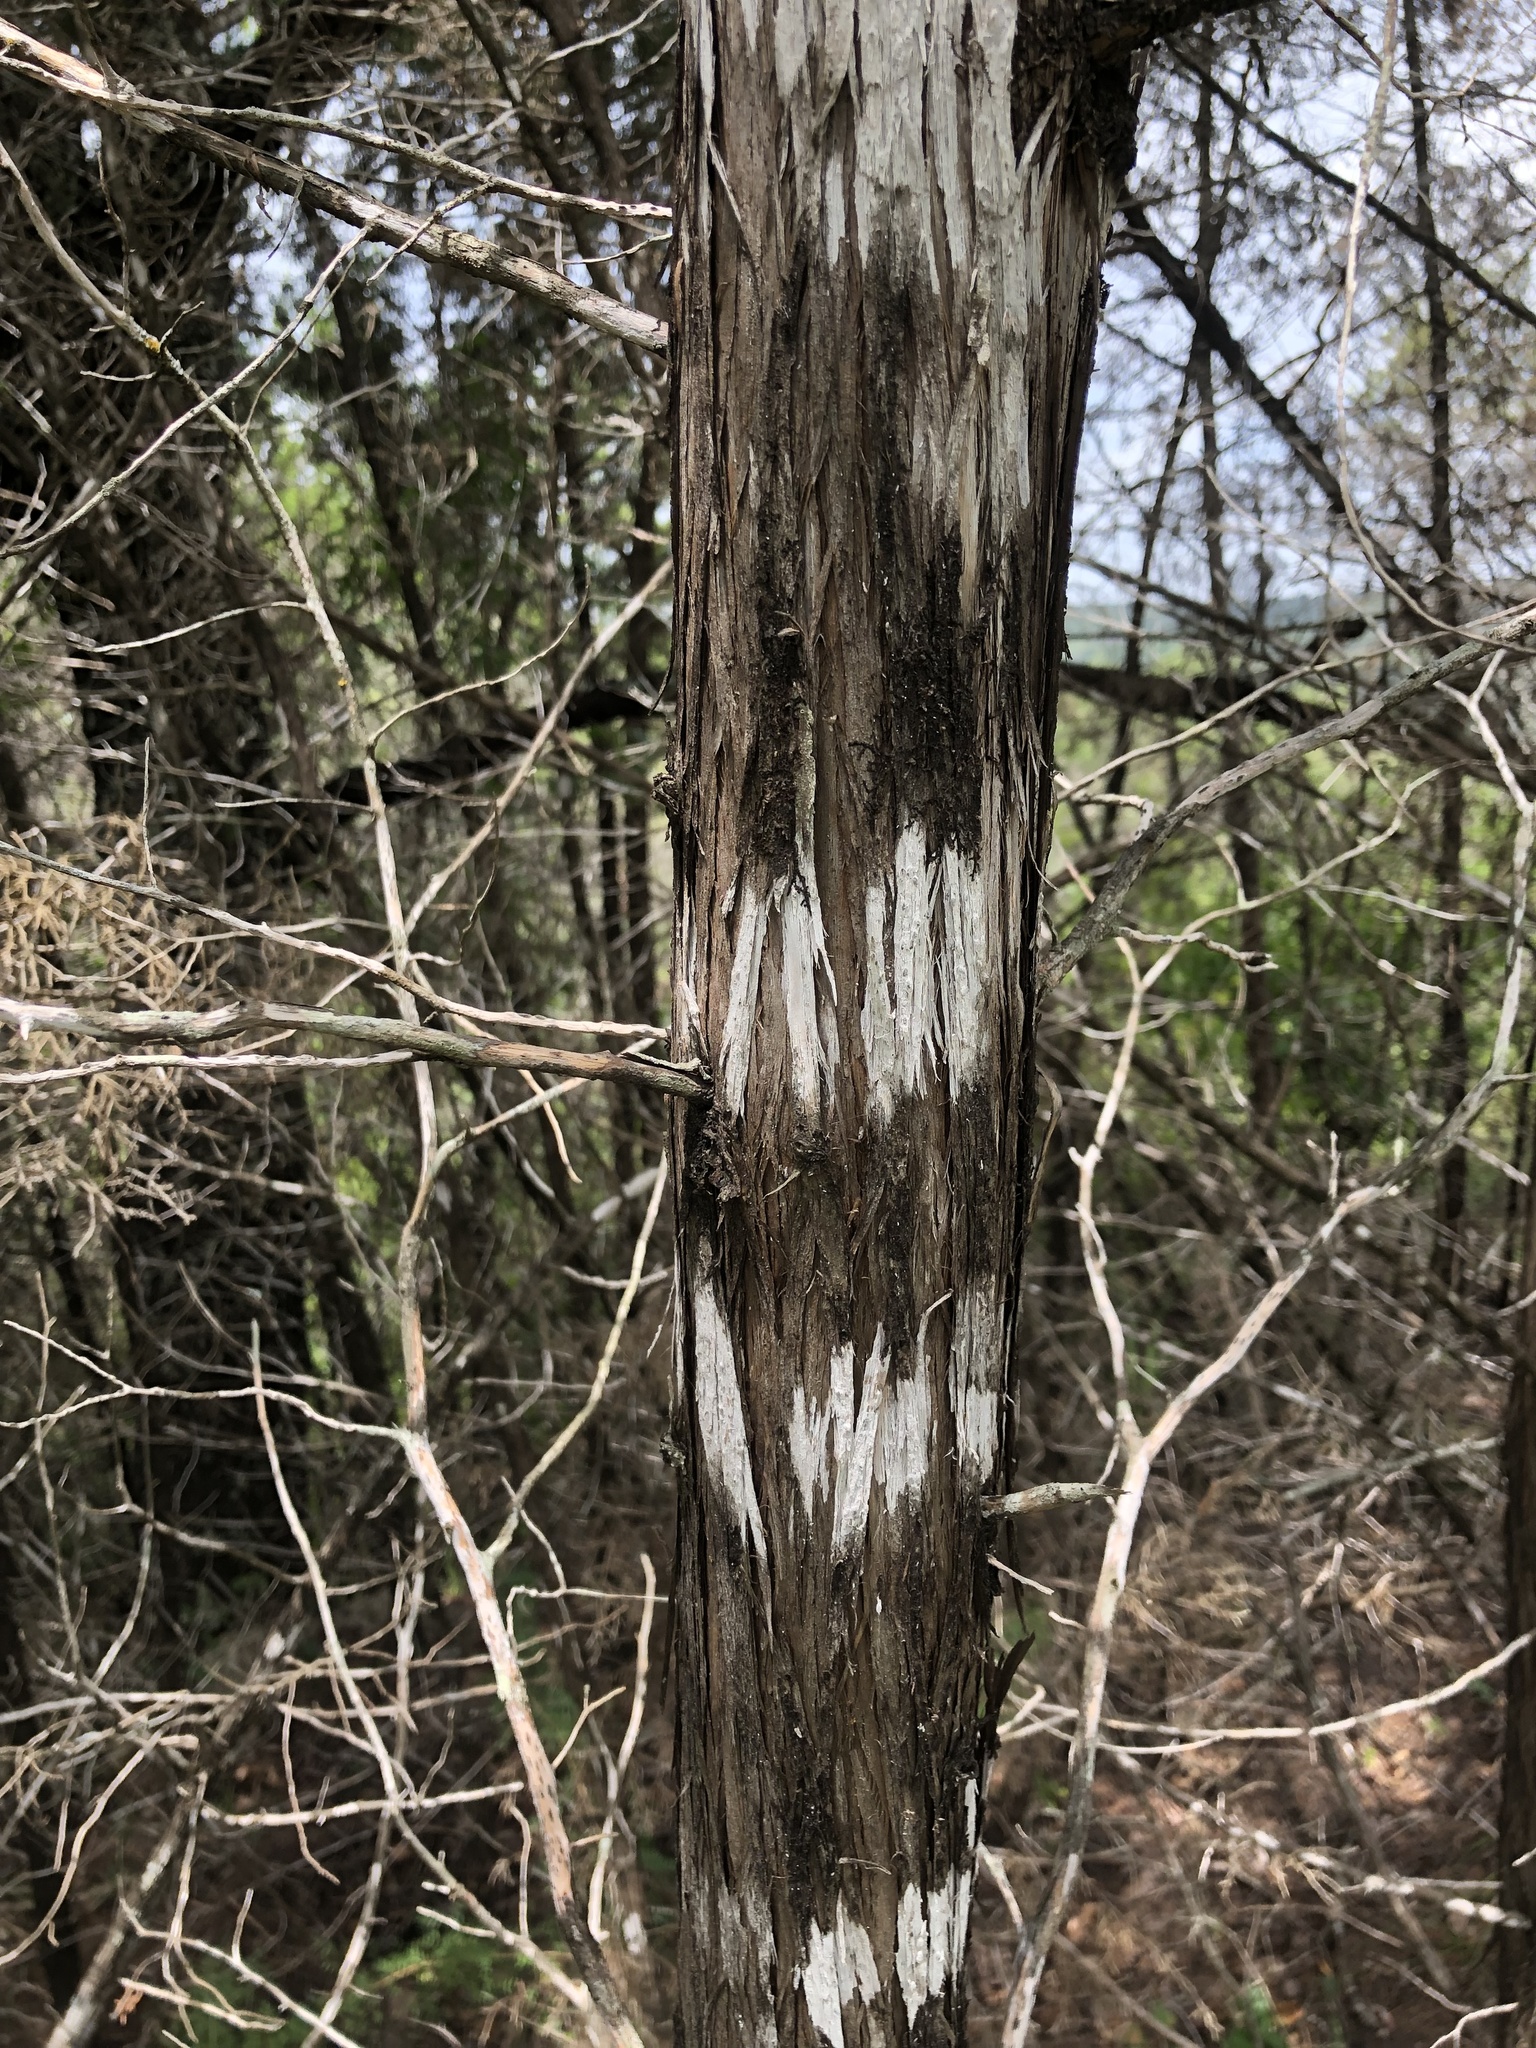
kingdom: Fungi
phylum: Ascomycota
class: Lecanoromycetes
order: Ostropales
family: Stictidaceae
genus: Robergea
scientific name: Robergea
